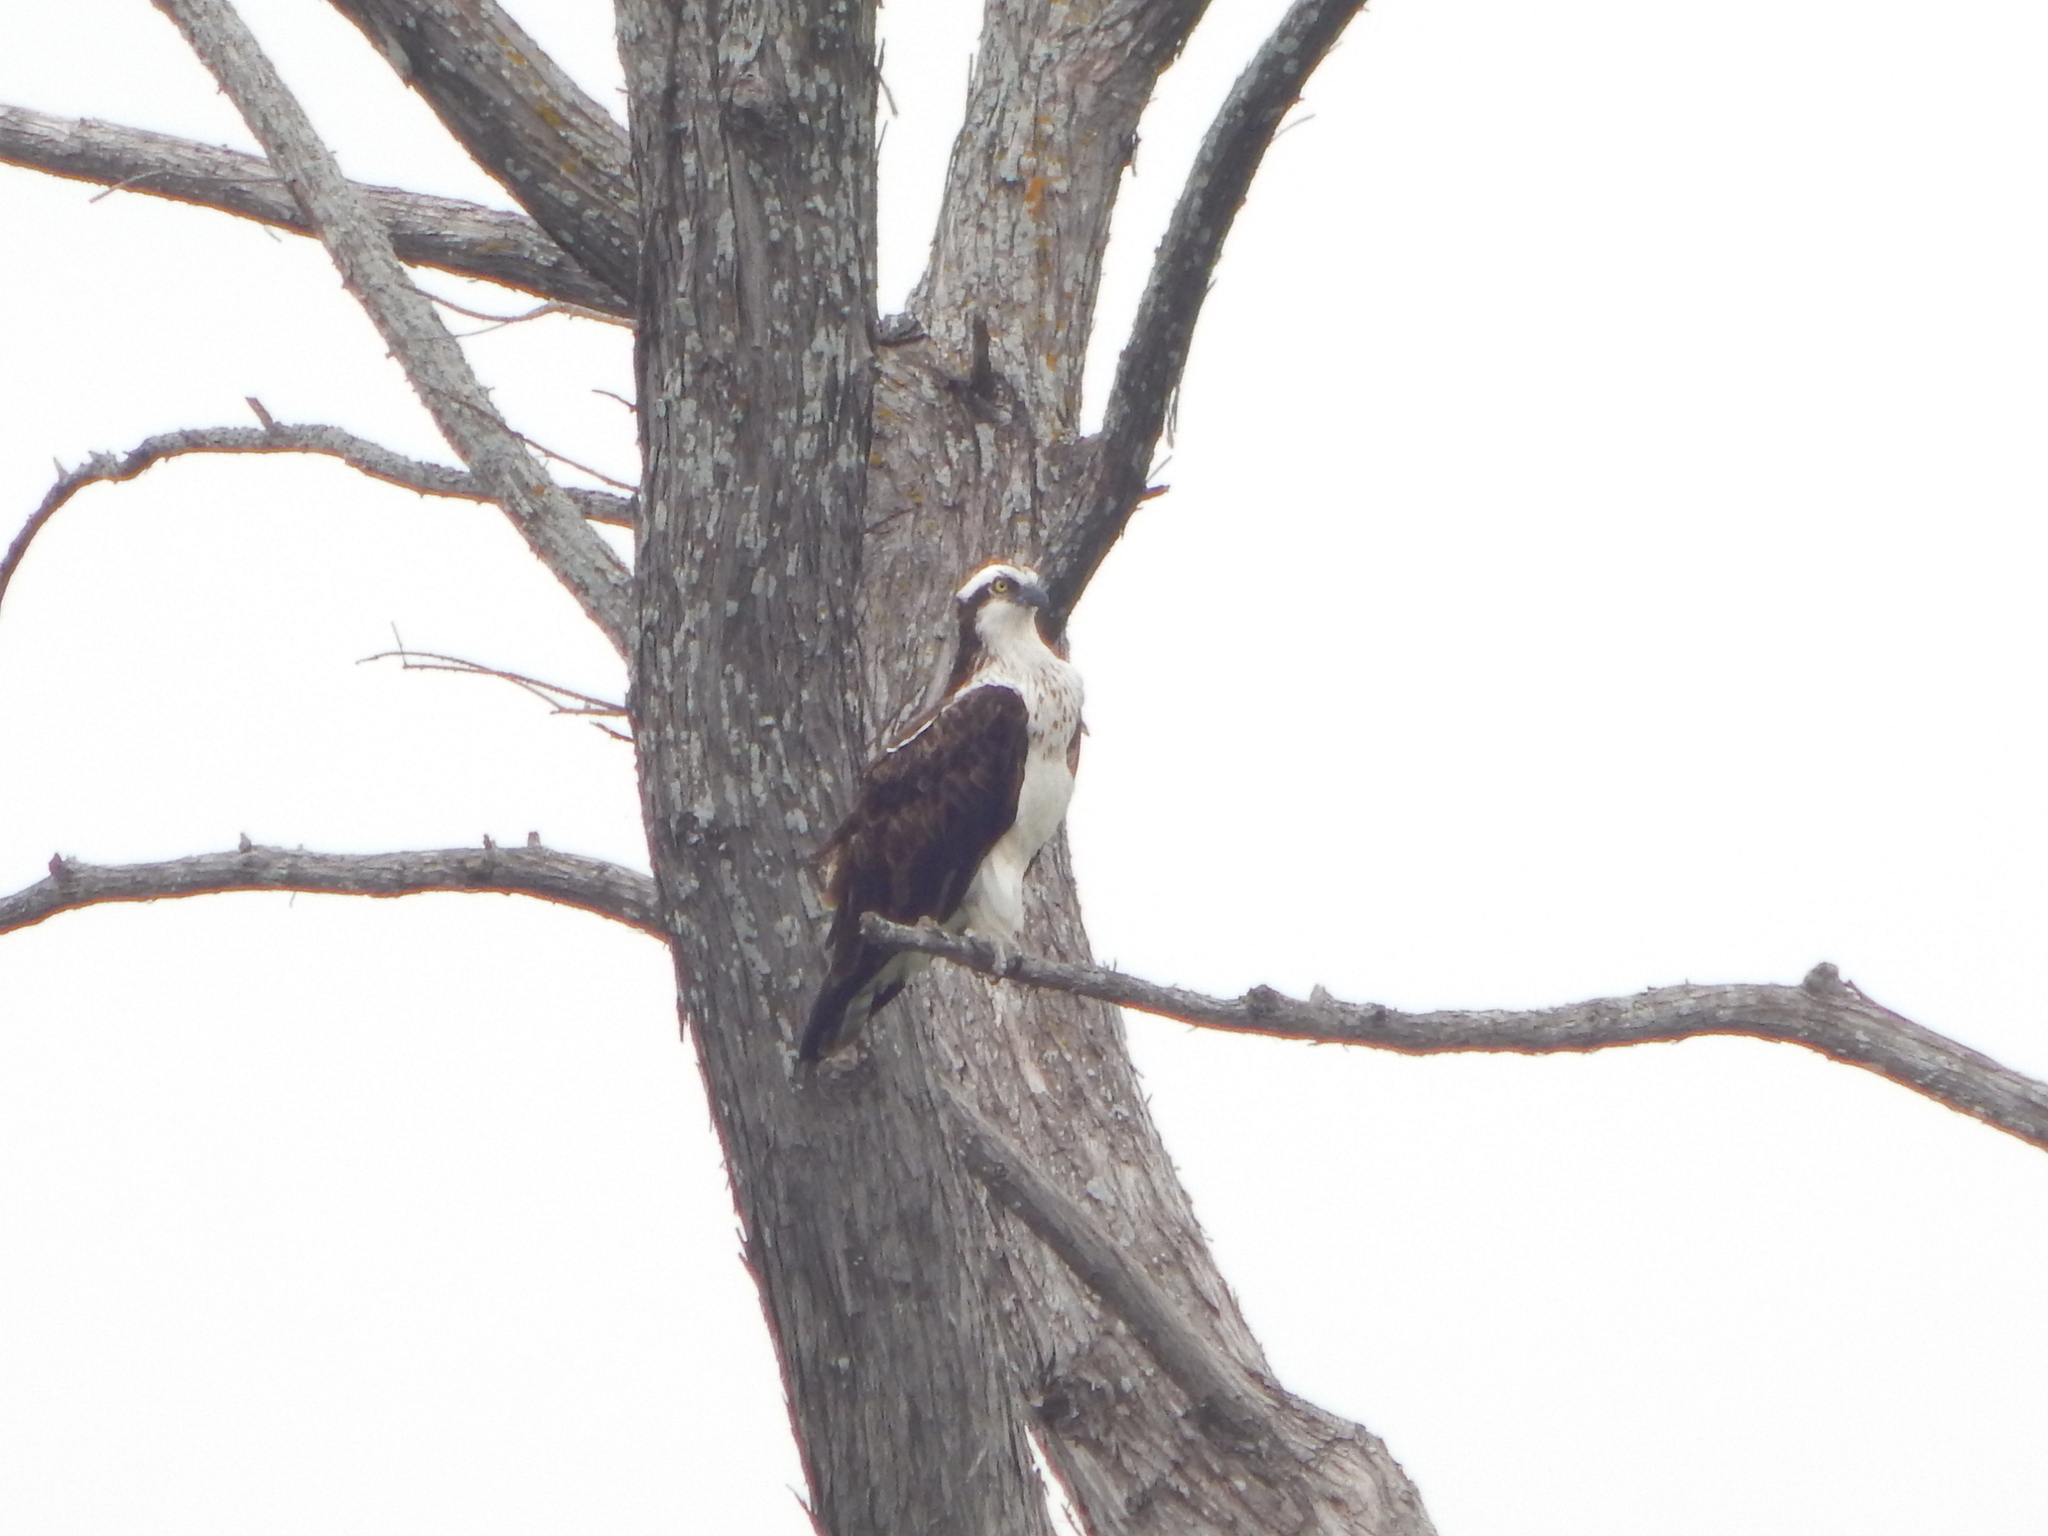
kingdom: Animalia
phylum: Chordata
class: Aves
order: Accipitriformes
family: Pandionidae
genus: Pandion
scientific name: Pandion haliaetus
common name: Osprey
